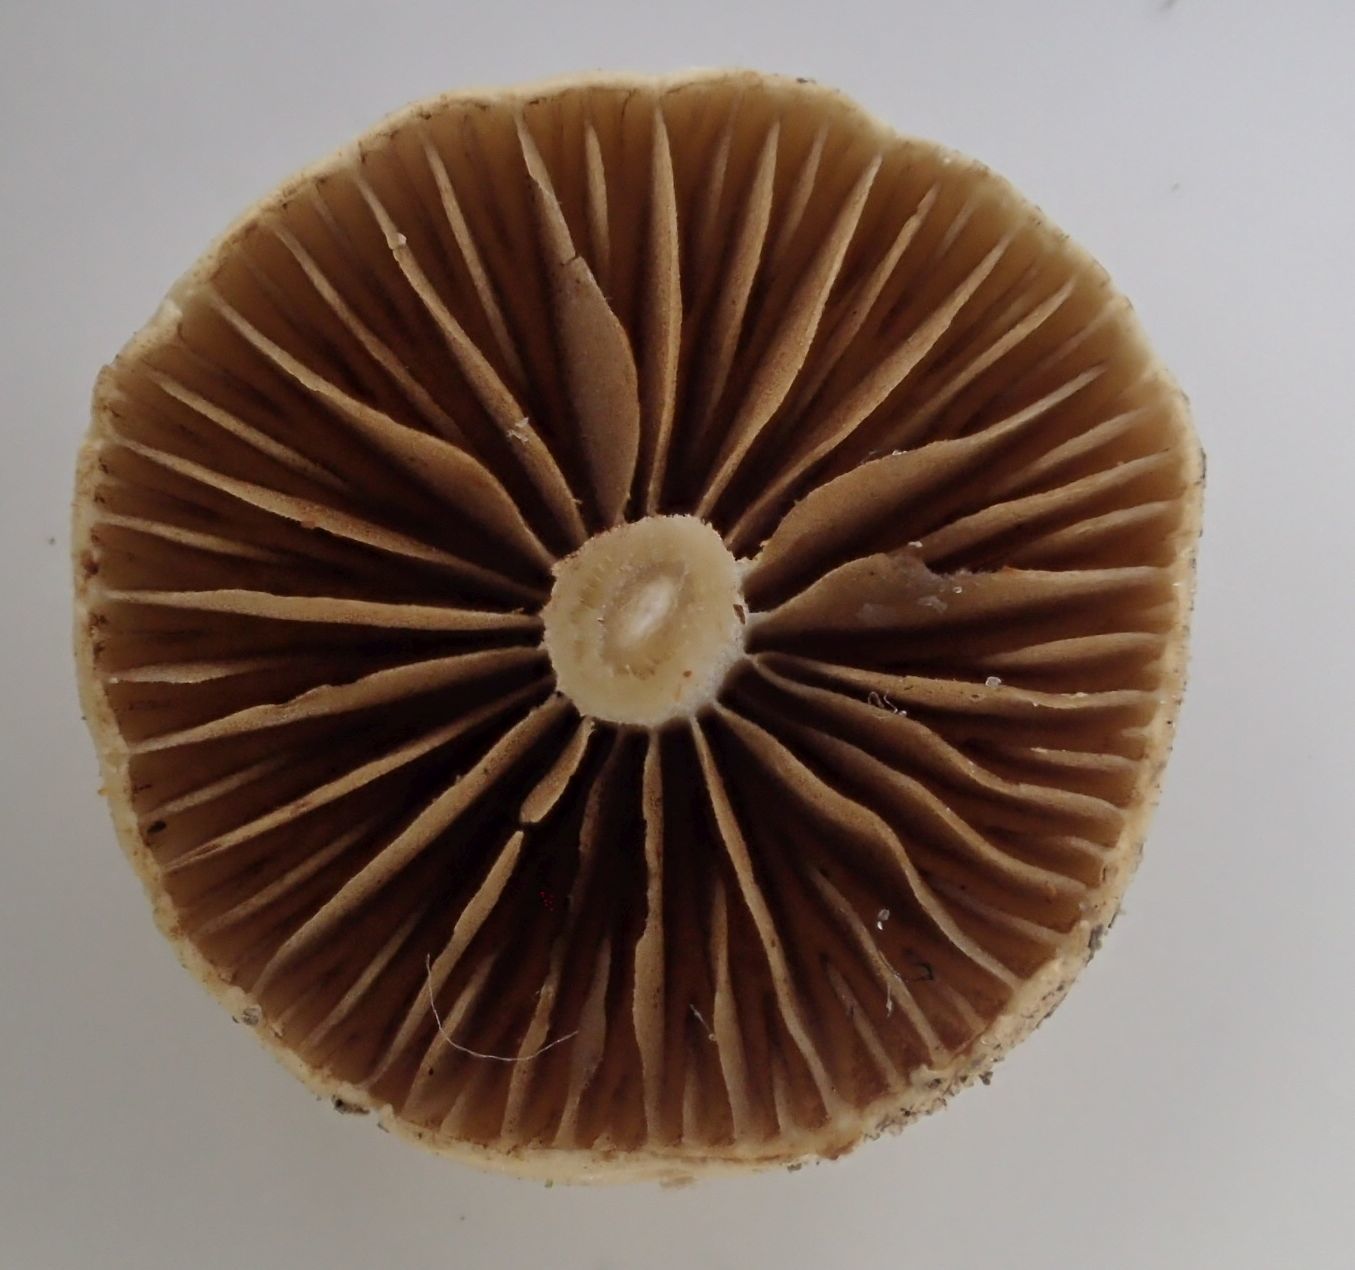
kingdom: Fungi
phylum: Basidiomycota
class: Agaricomycetes
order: Agaricales
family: Strophariaceae
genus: Agrocybe
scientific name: Agrocybe pediades
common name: Common fieldcap
